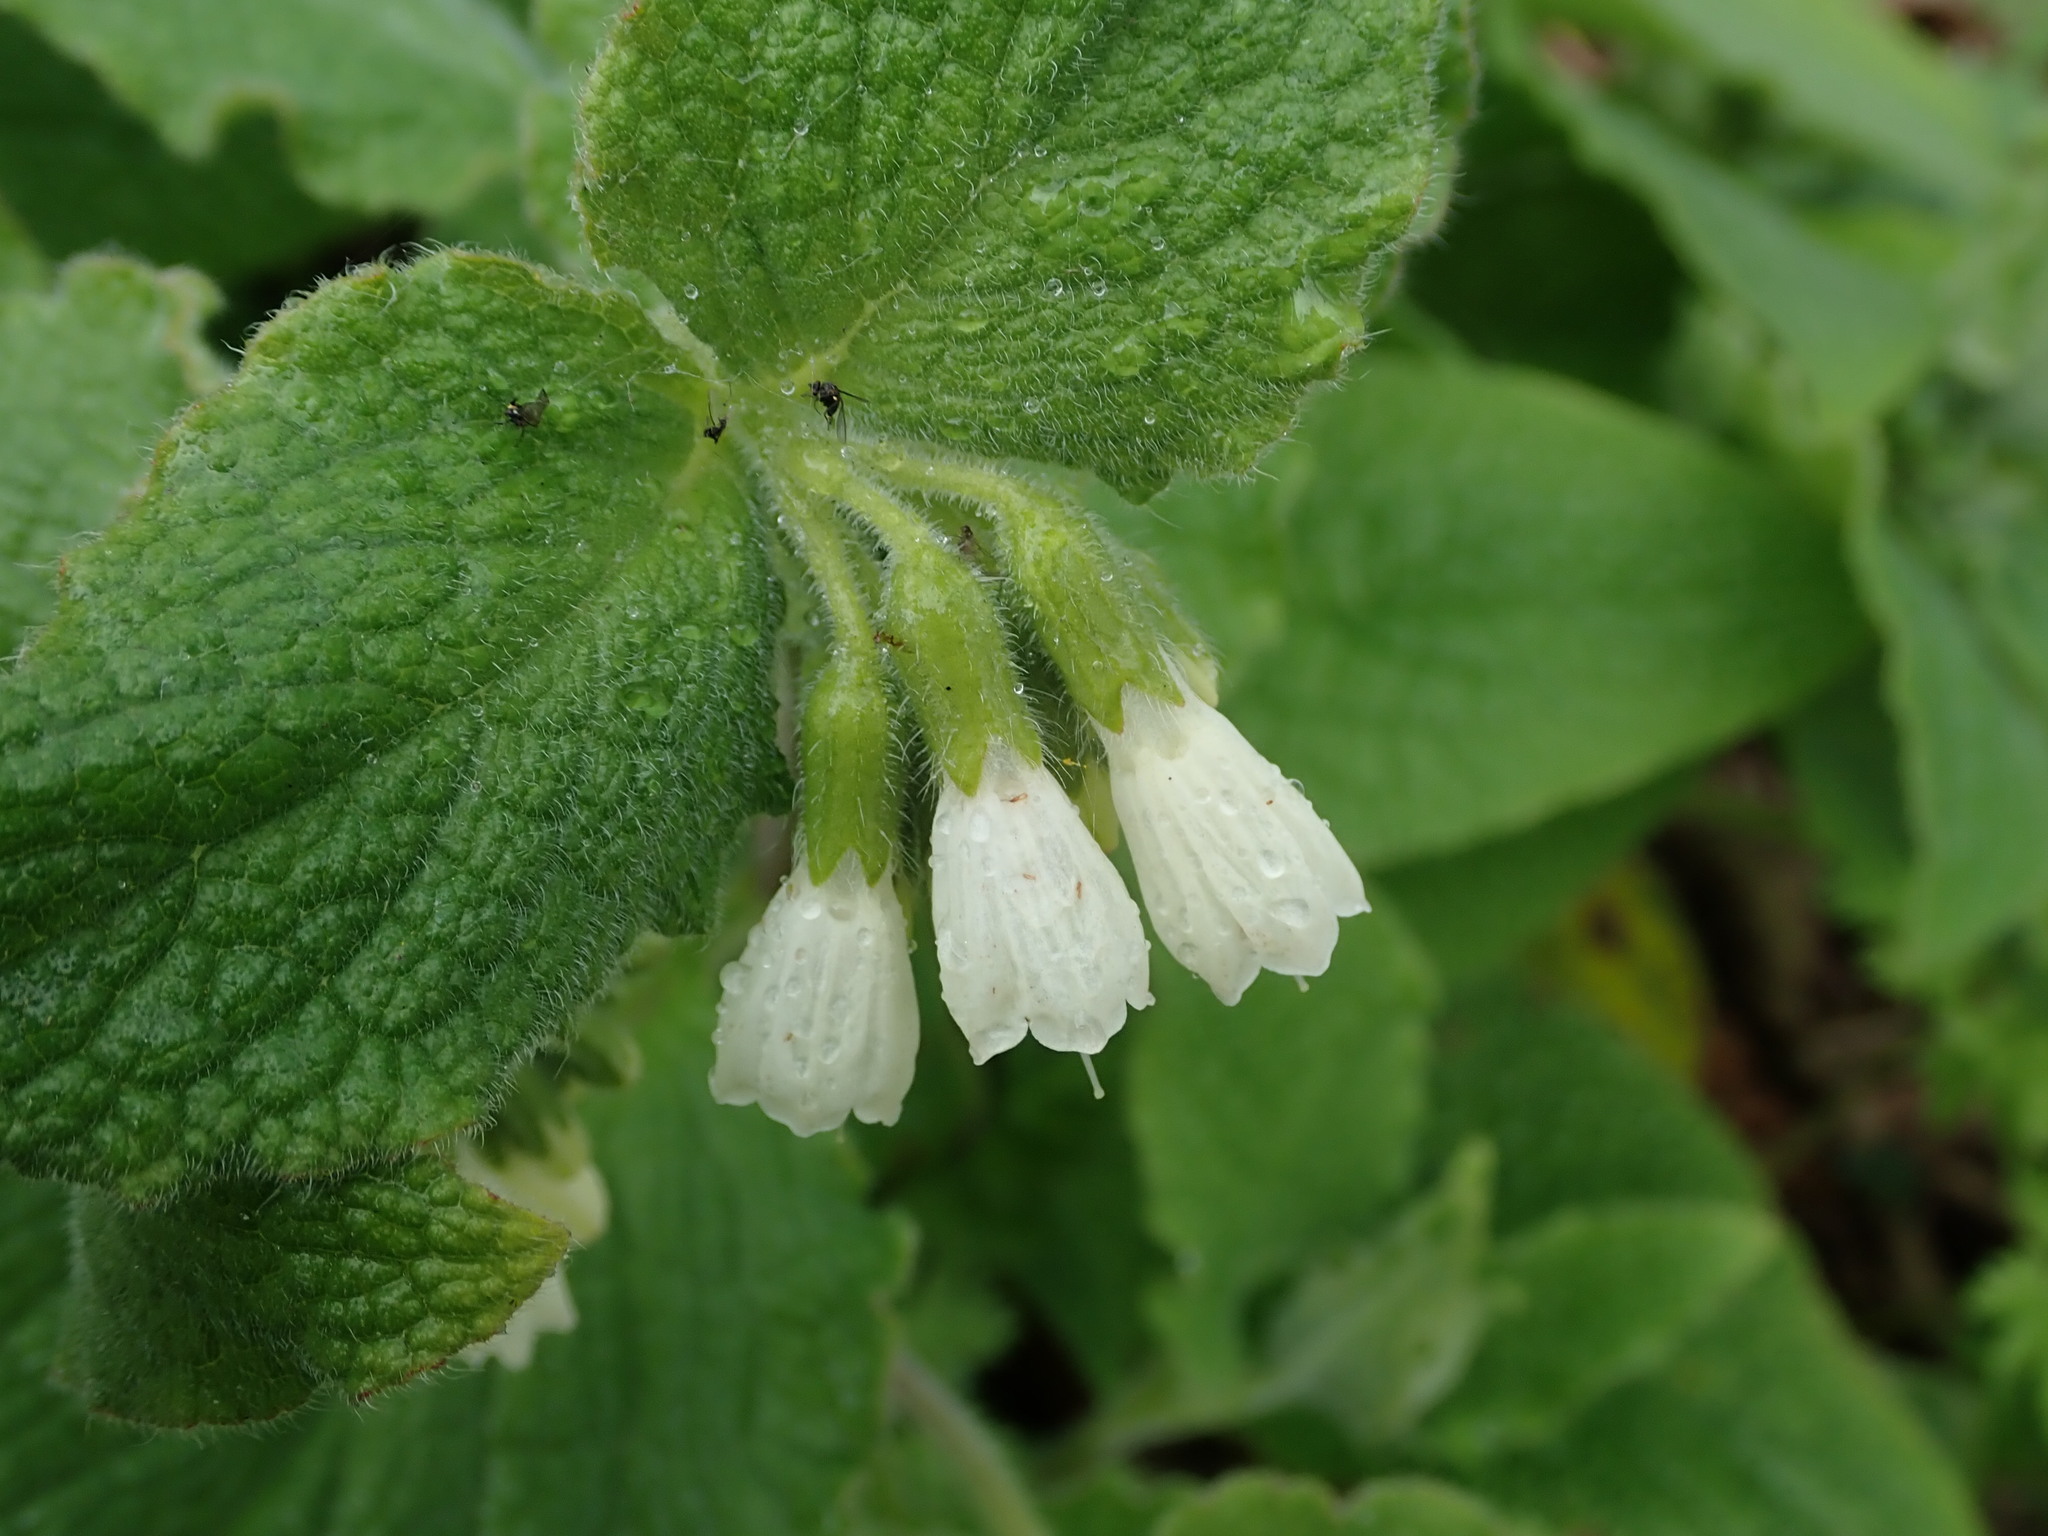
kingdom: Plantae
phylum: Tracheophyta
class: Magnoliopsida
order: Boraginales
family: Boraginaceae
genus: Symphytum
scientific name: Symphytum orientale
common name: White comfrey
